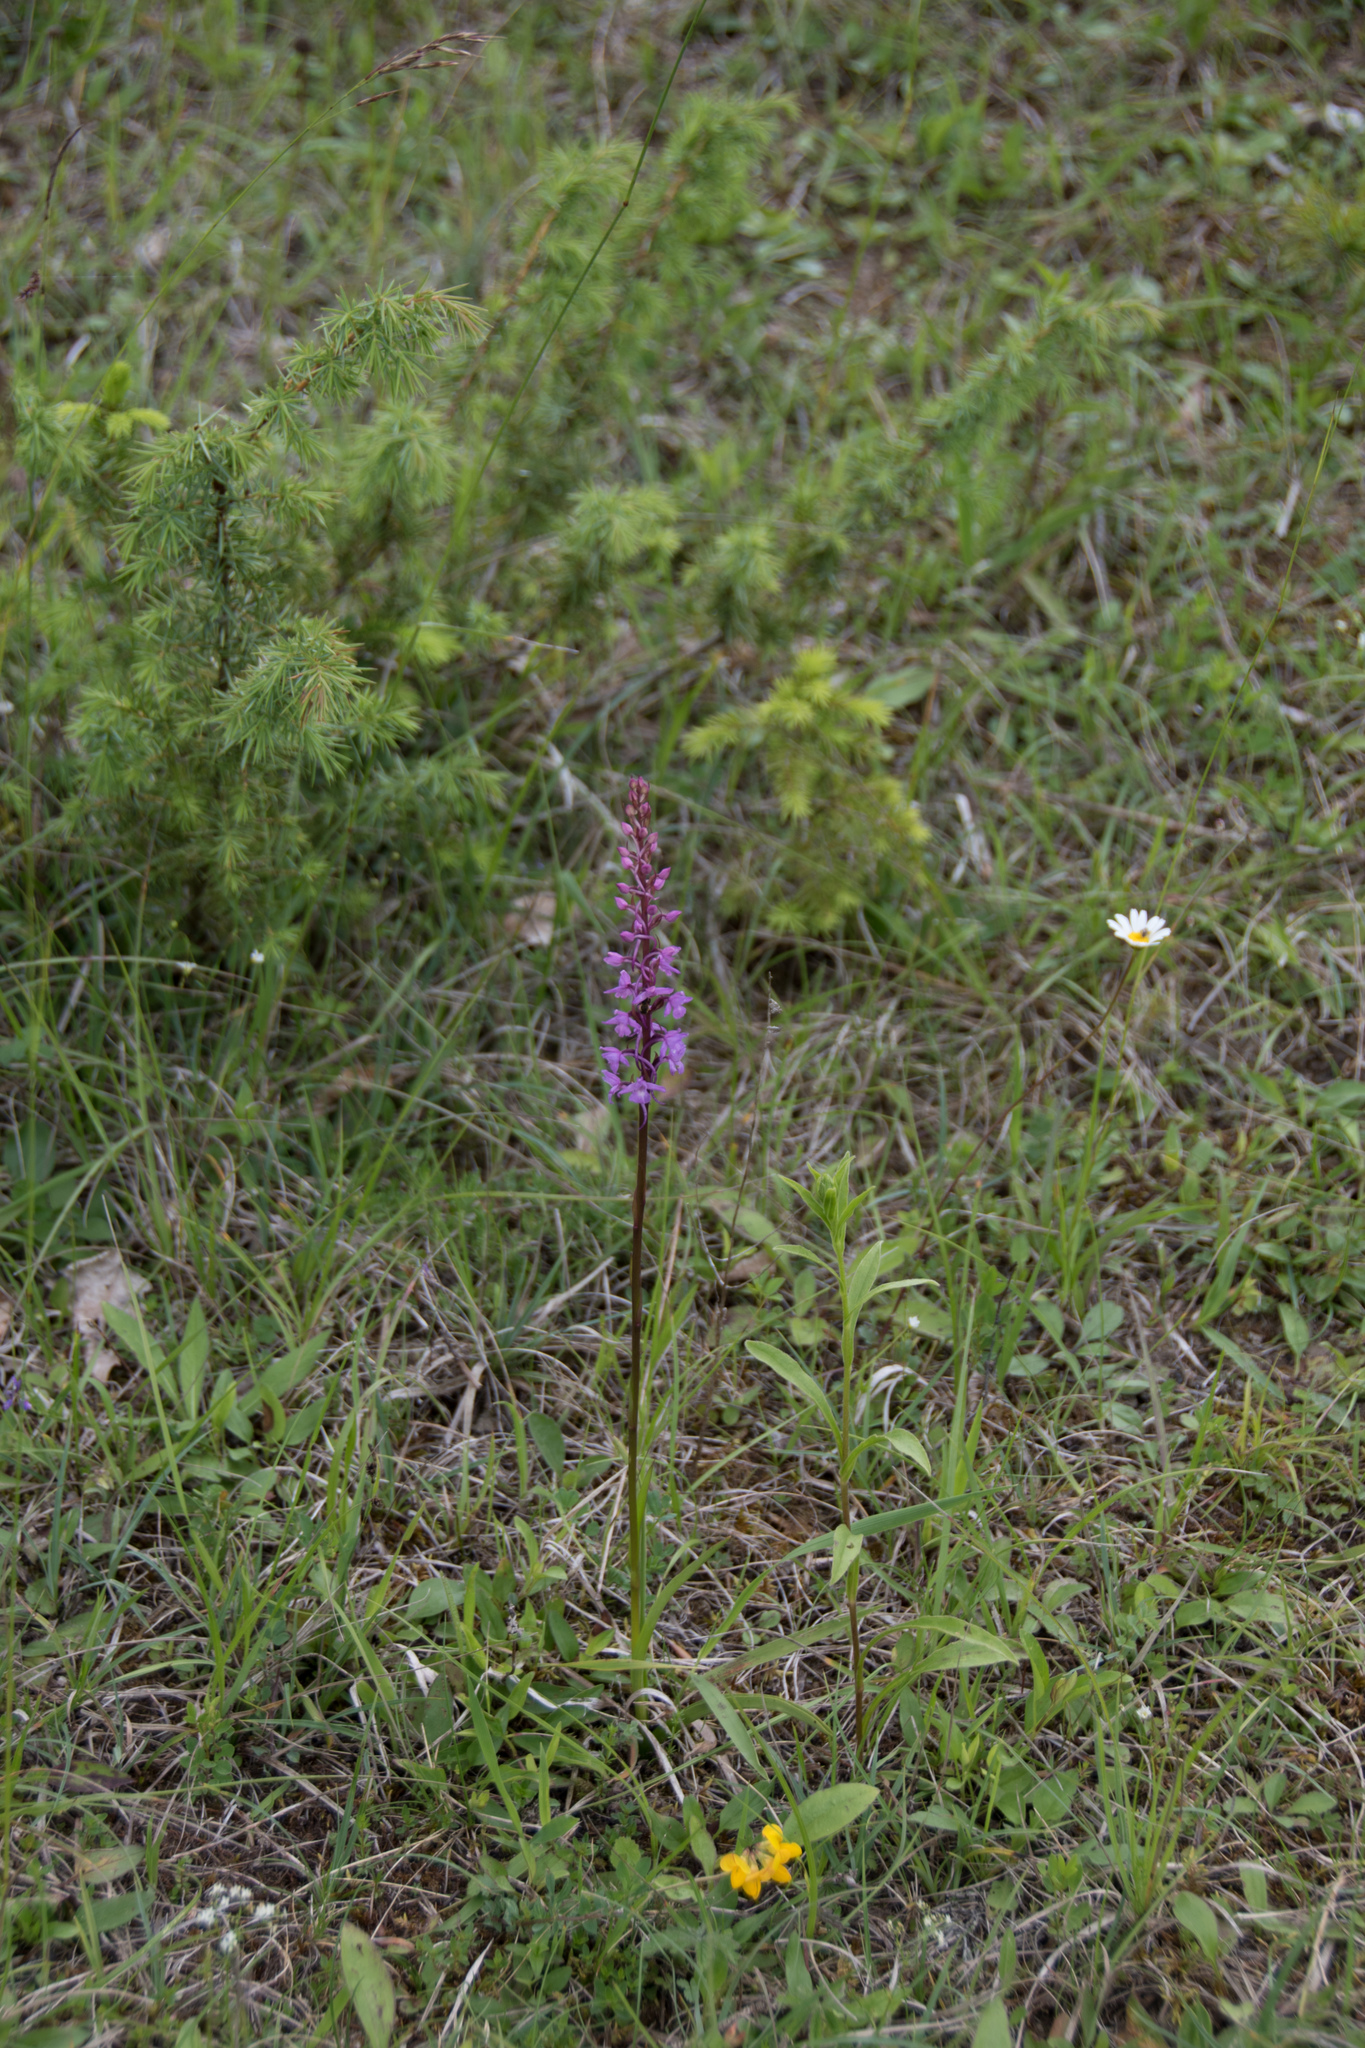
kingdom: Plantae
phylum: Tracheophyta
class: Liliopsida
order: Asparagales
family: Orchidaceae
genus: Gymnadenia
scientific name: Gymnadenia conopsea
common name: Fragrant orchid
